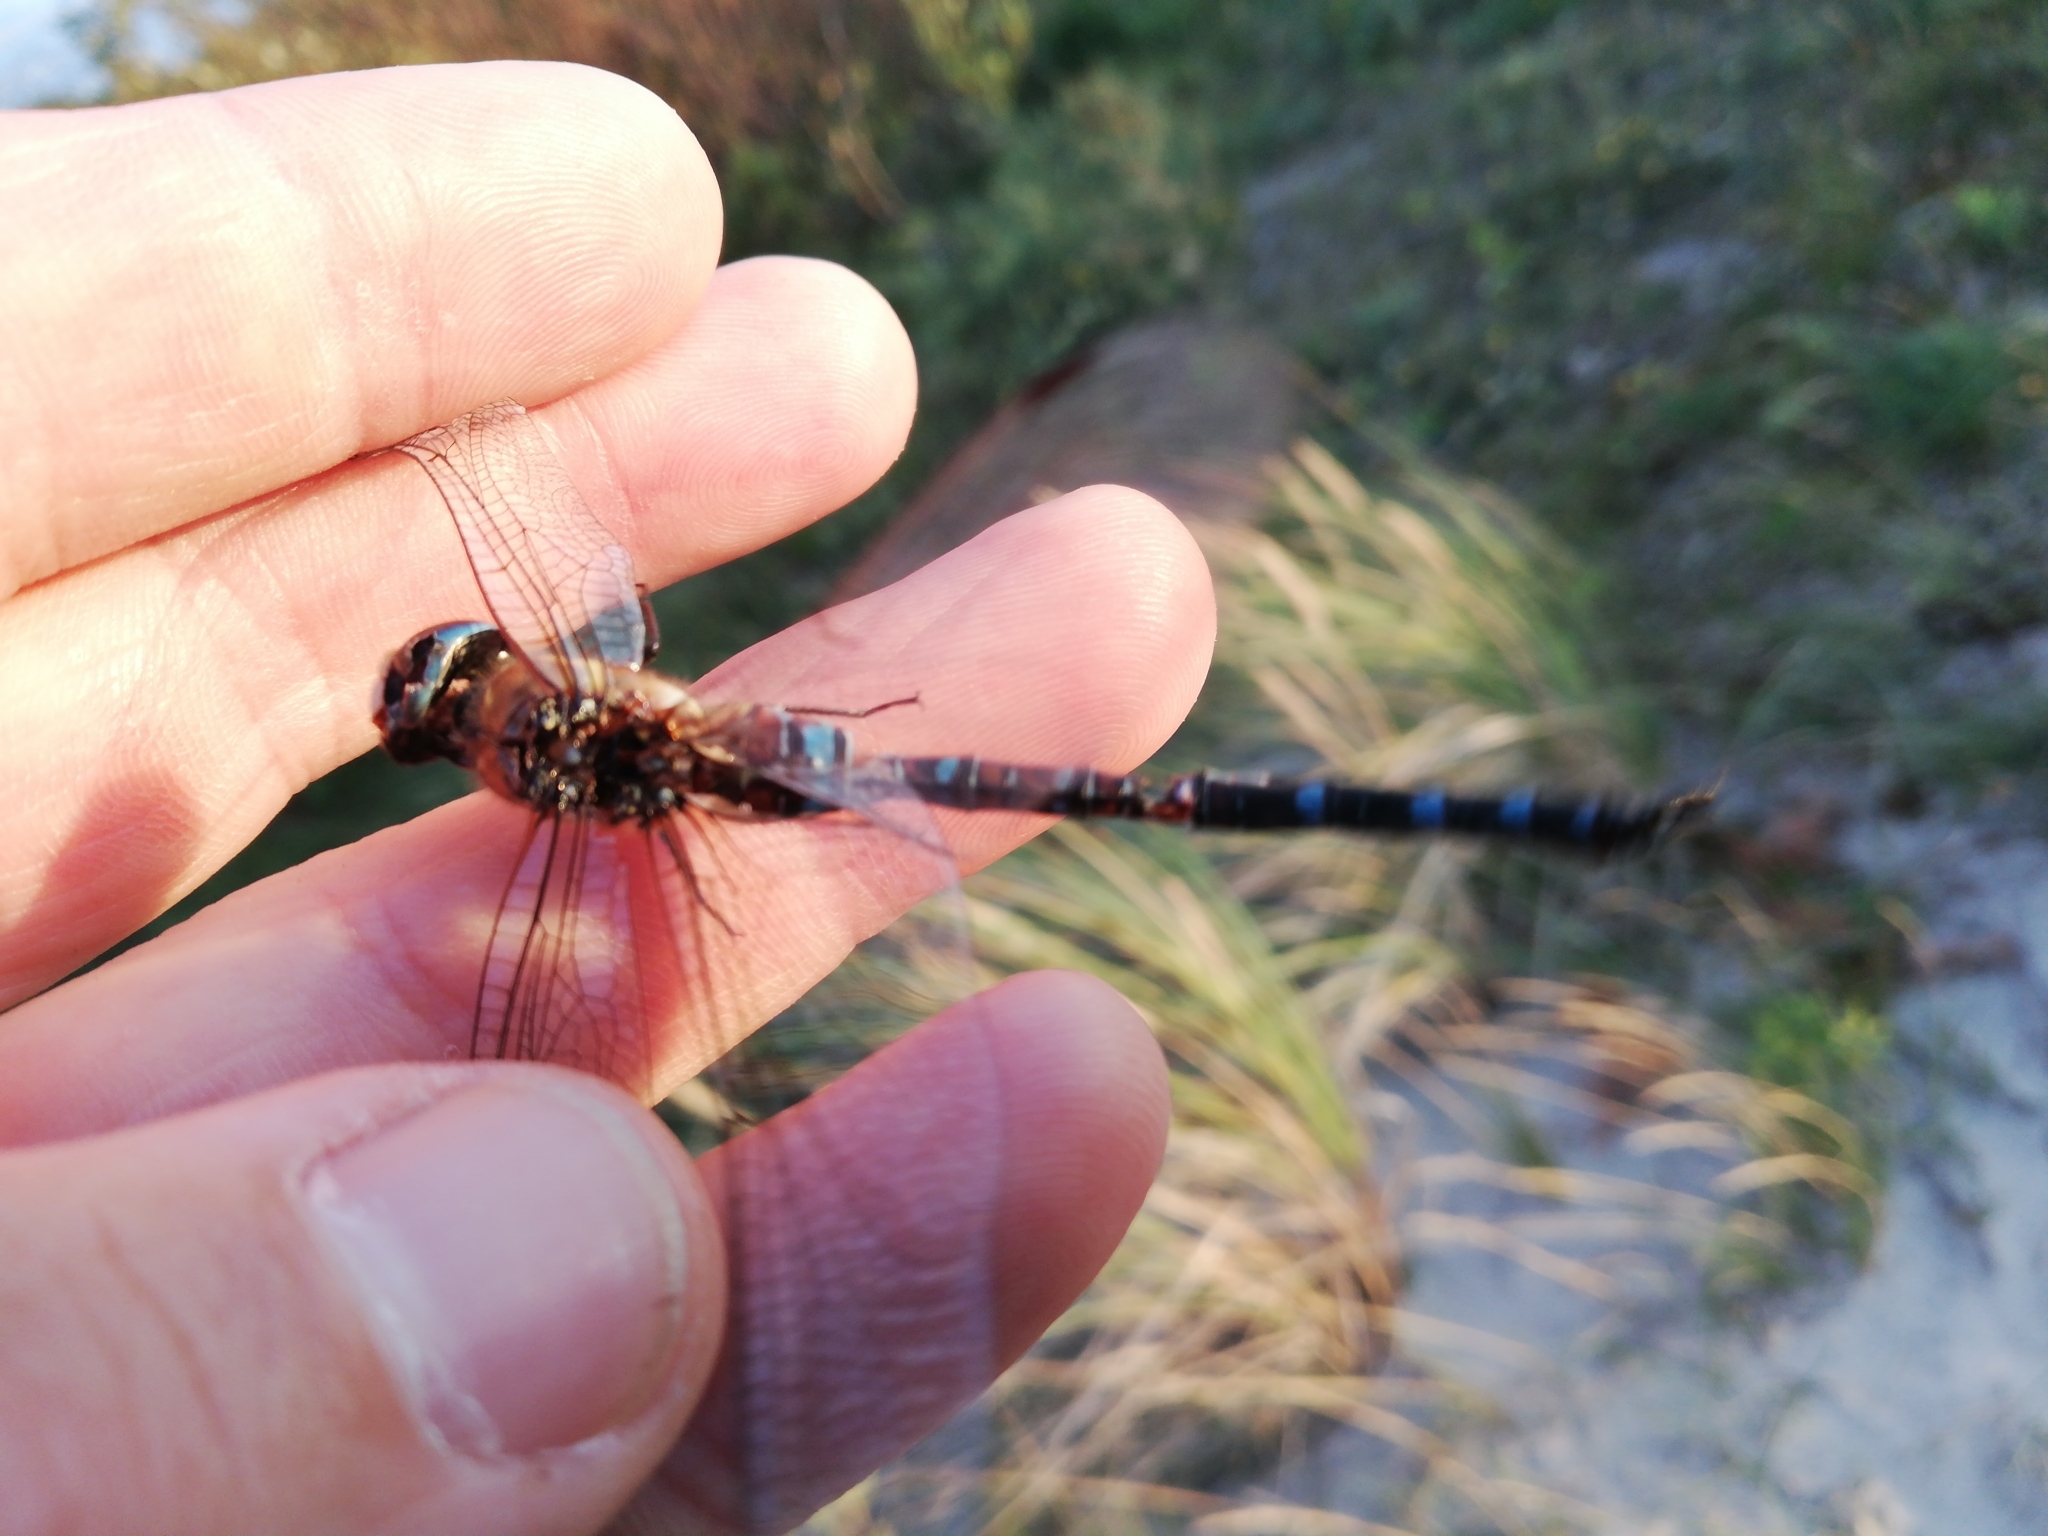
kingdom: Animalia
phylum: Arthropoda
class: Insecta
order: Odonata
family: Aeshnidae
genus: Aeshna
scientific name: Aeshna mixta
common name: Migrant hawker
